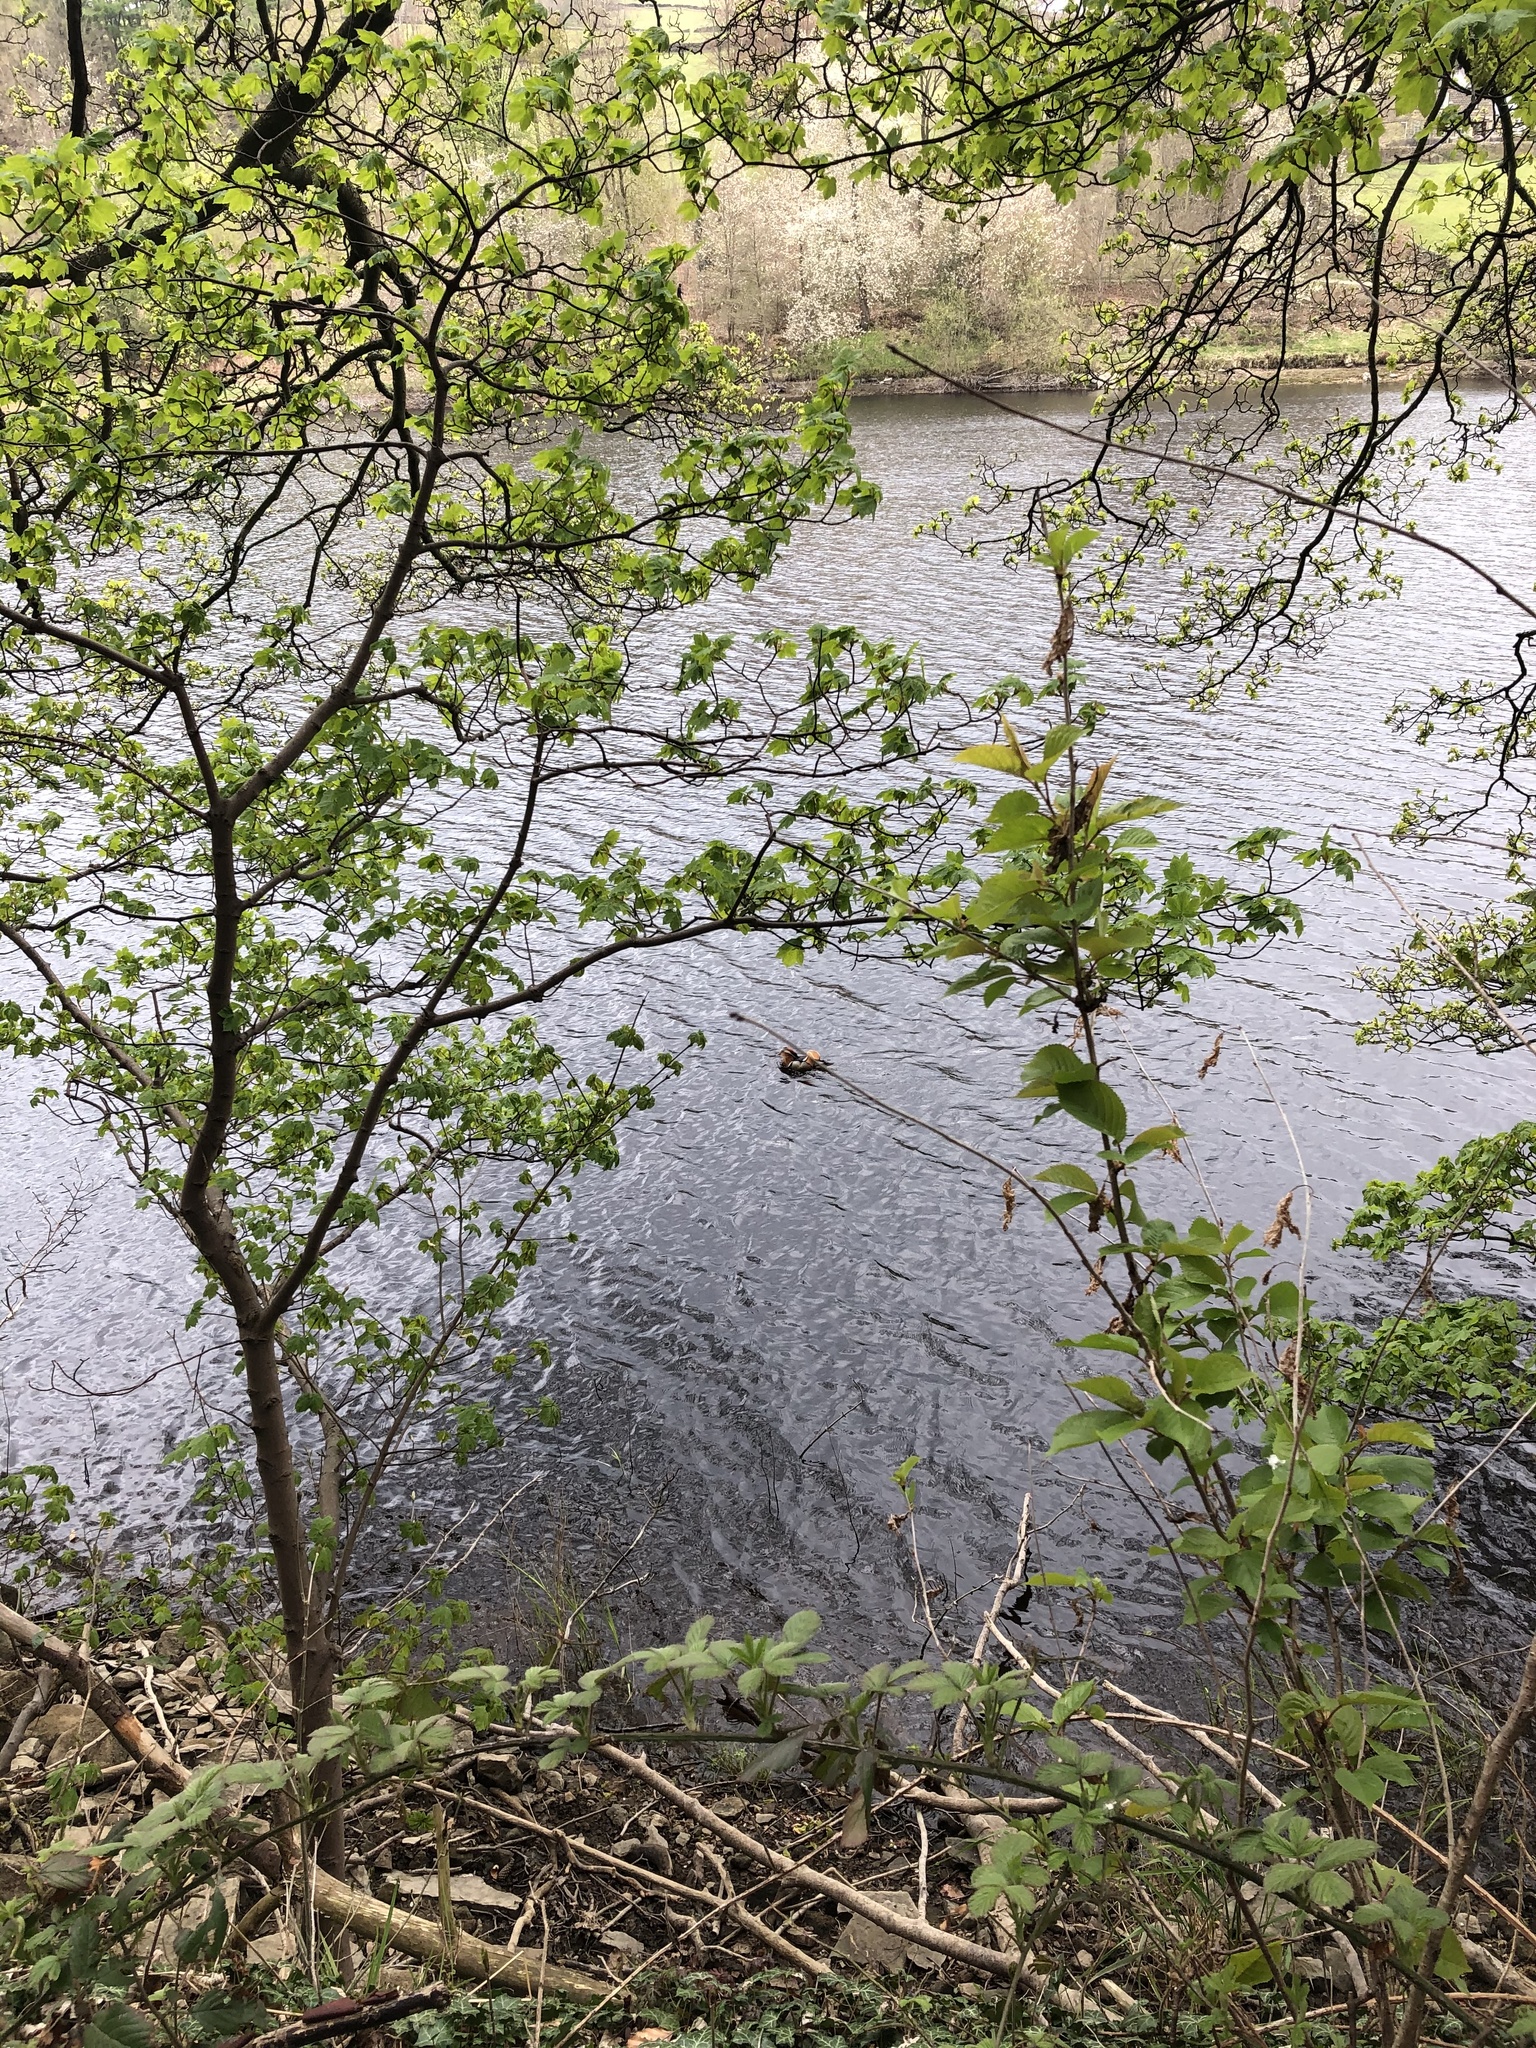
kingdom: Animalia
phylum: Chordata
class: Aves
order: Anseriformes
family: Anatidae
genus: Aix
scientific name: Aix galericulata
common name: Mandarin duck
